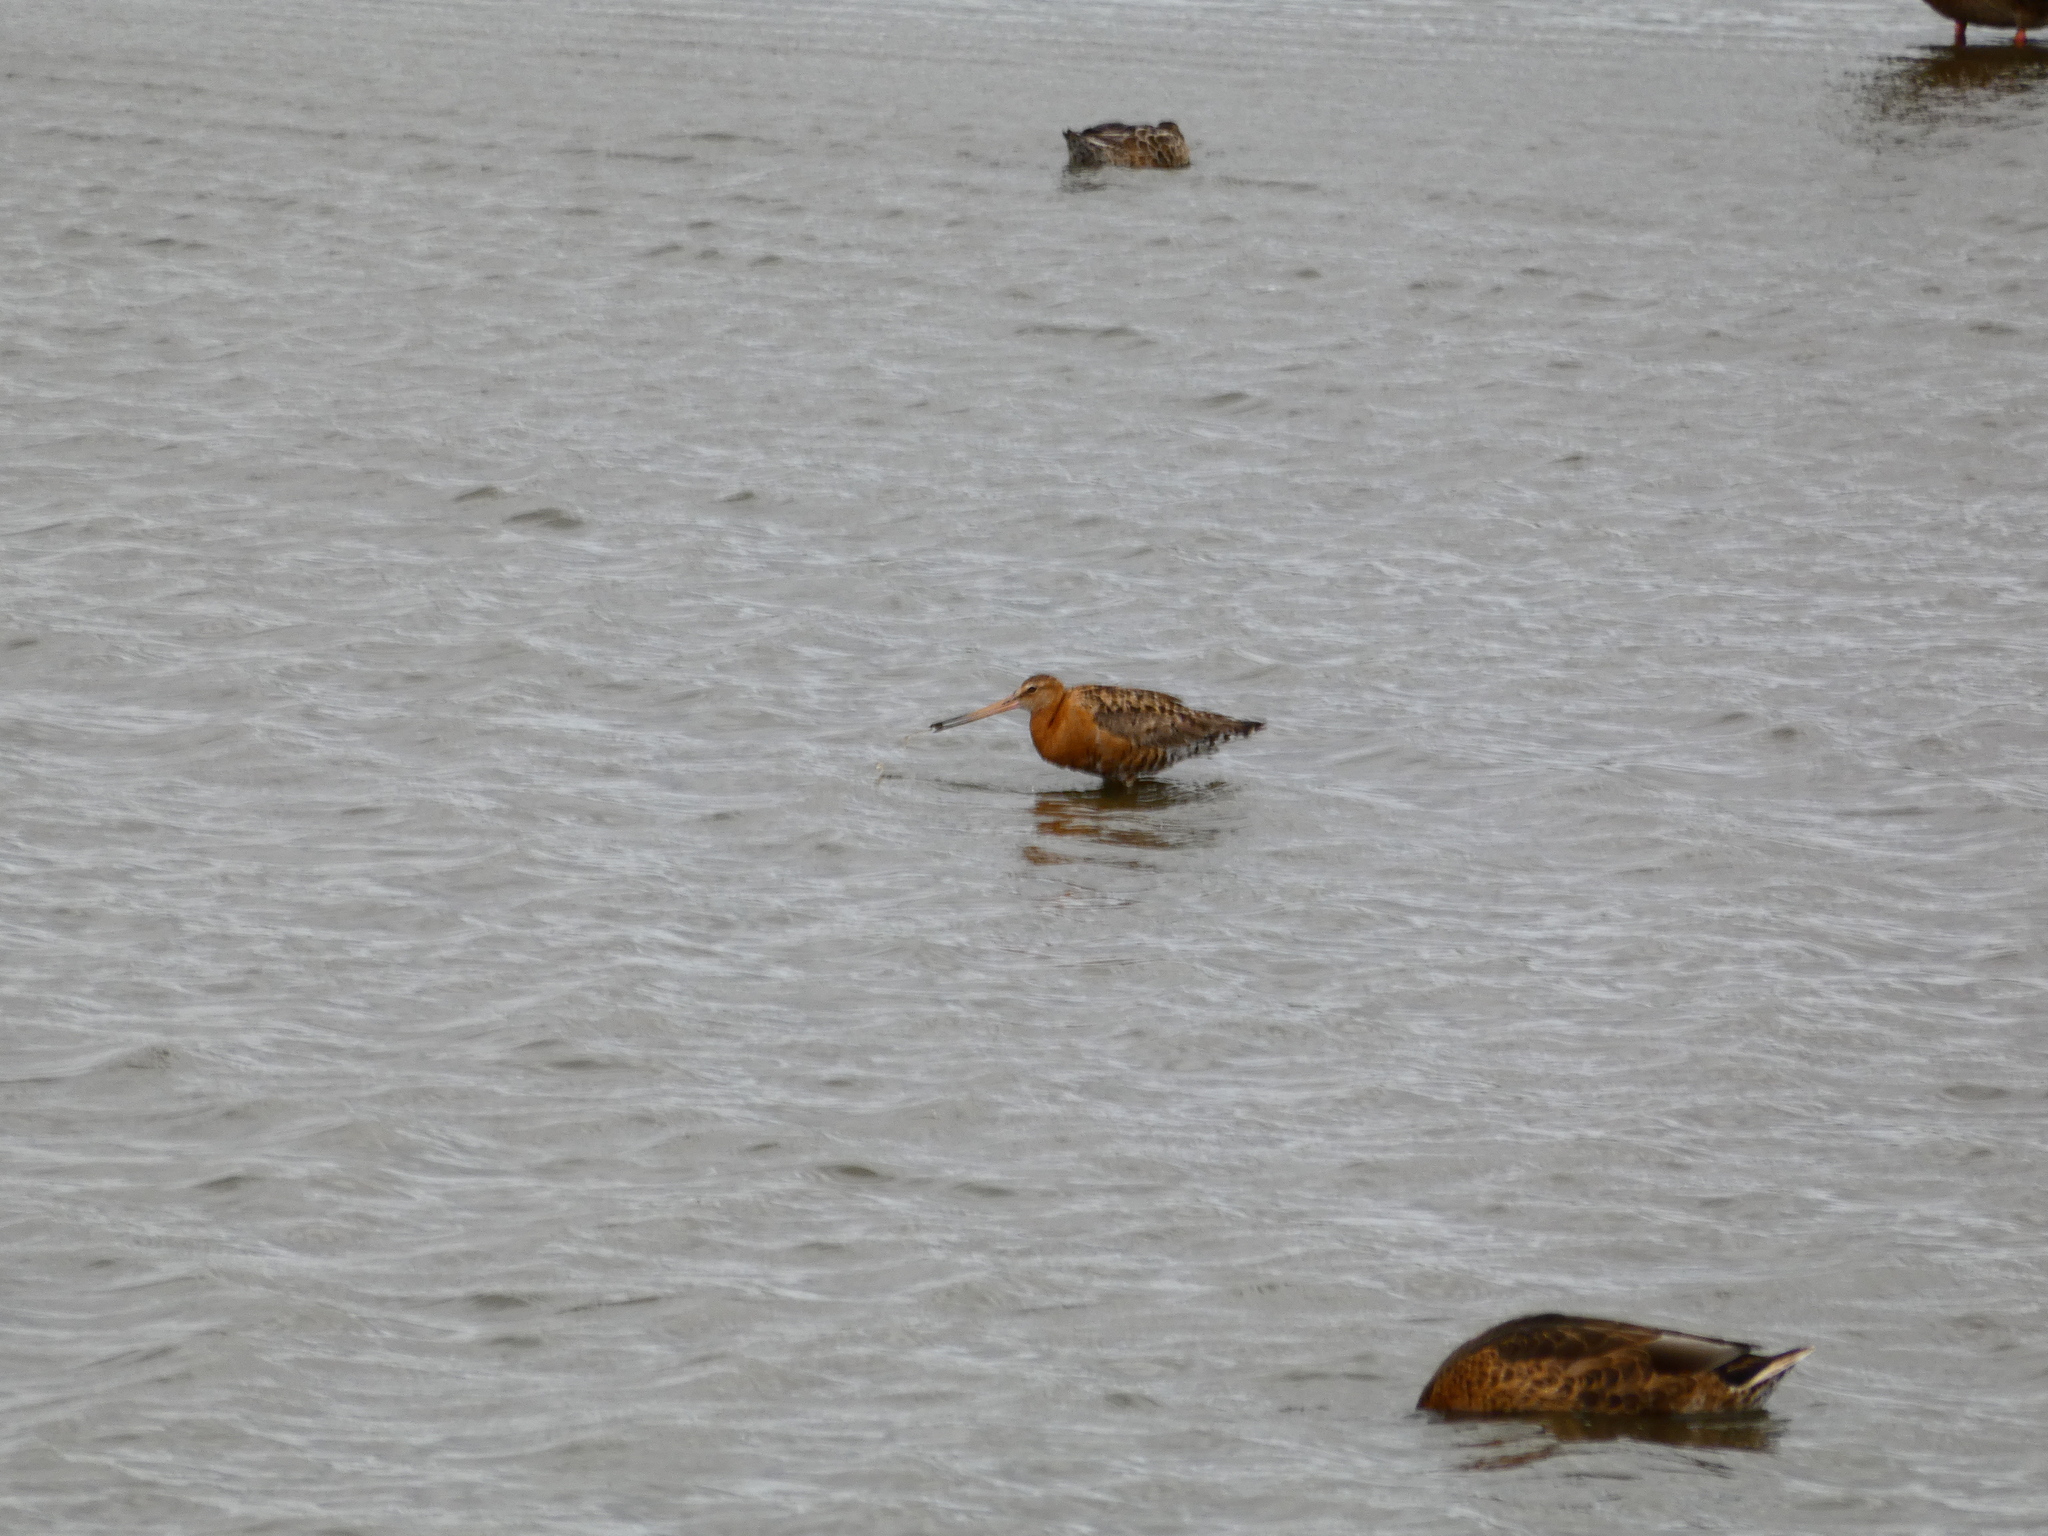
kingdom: Animalia
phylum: Chordata
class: Aves
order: Charadriiformes
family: Scolopacidae
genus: Limosa
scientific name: Limosa limosa
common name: Black-tailed godwit
